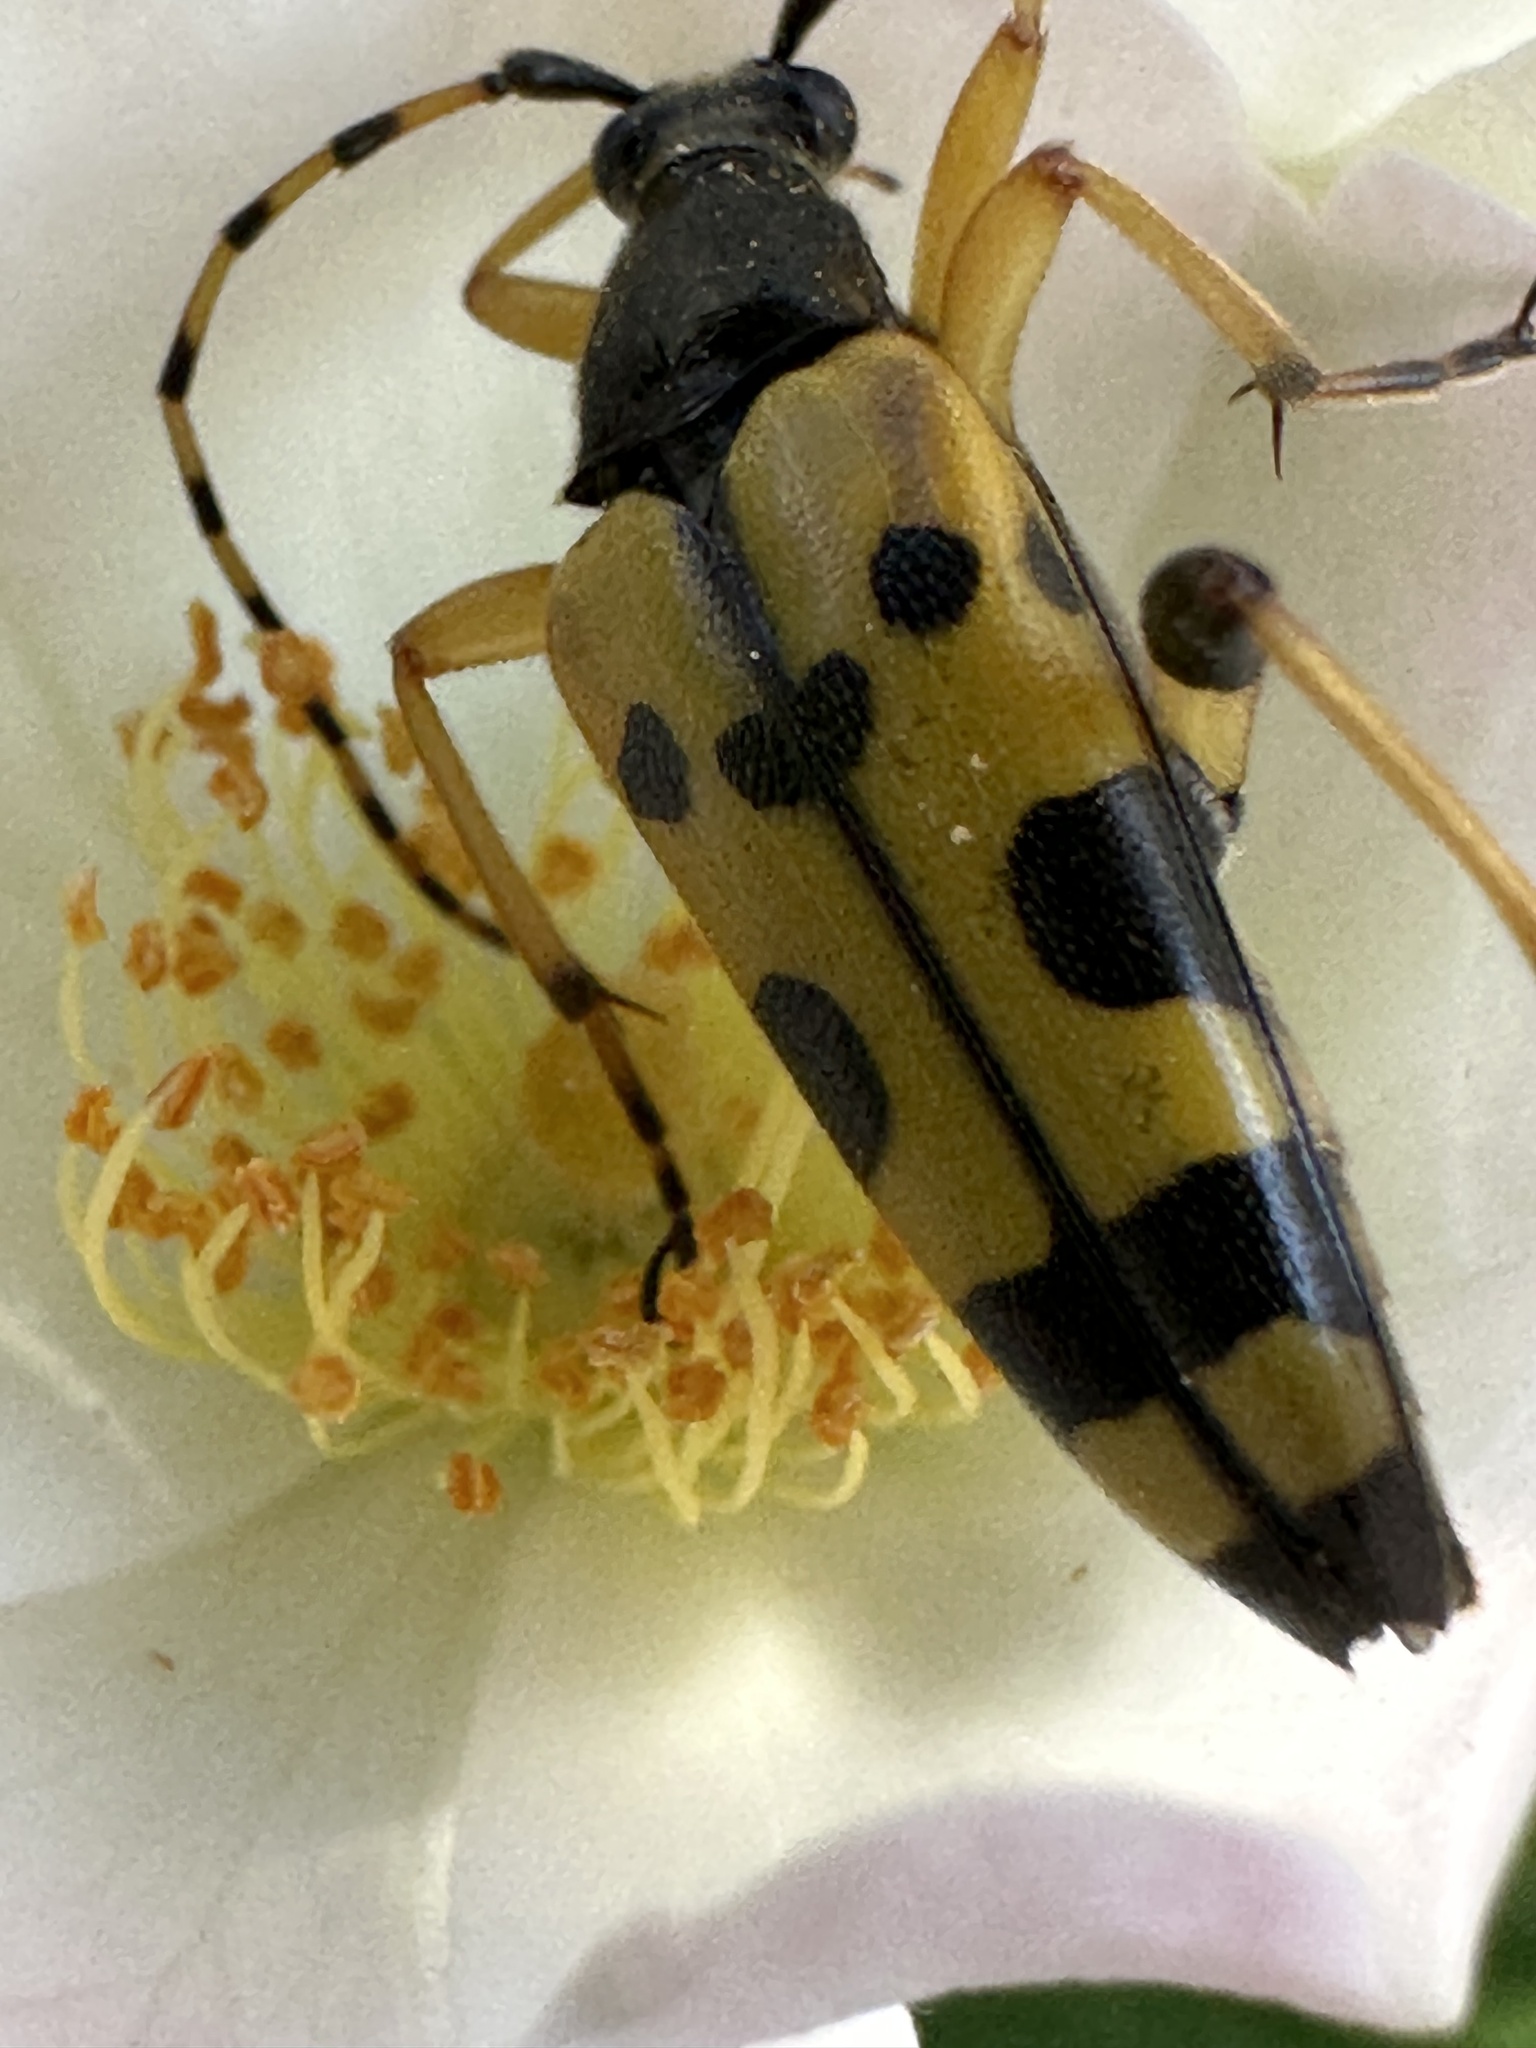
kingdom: Animalia
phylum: Arthropoda
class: Insecta
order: Coleoptera
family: Cerambycidae
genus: Rutpela
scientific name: Rutpela maculata
